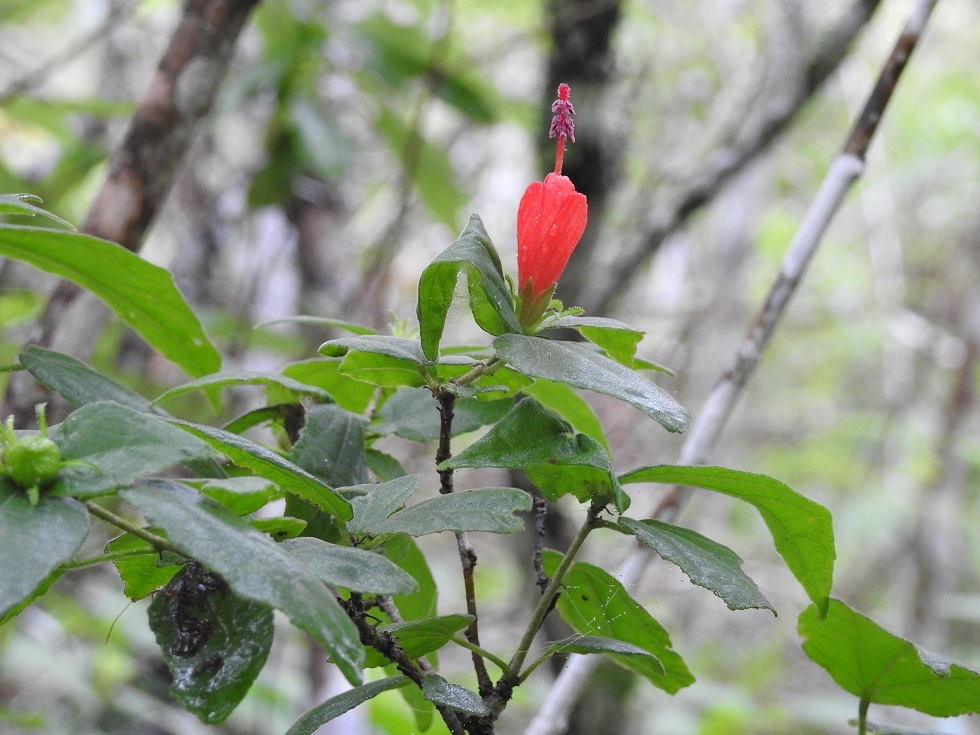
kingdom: Plantae
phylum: Tracheophyta
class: Magnoliopsida
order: Malvales
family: Malvaceae
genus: Malvaviscus
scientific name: Malvaviscus arboreus
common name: Wax mallow
